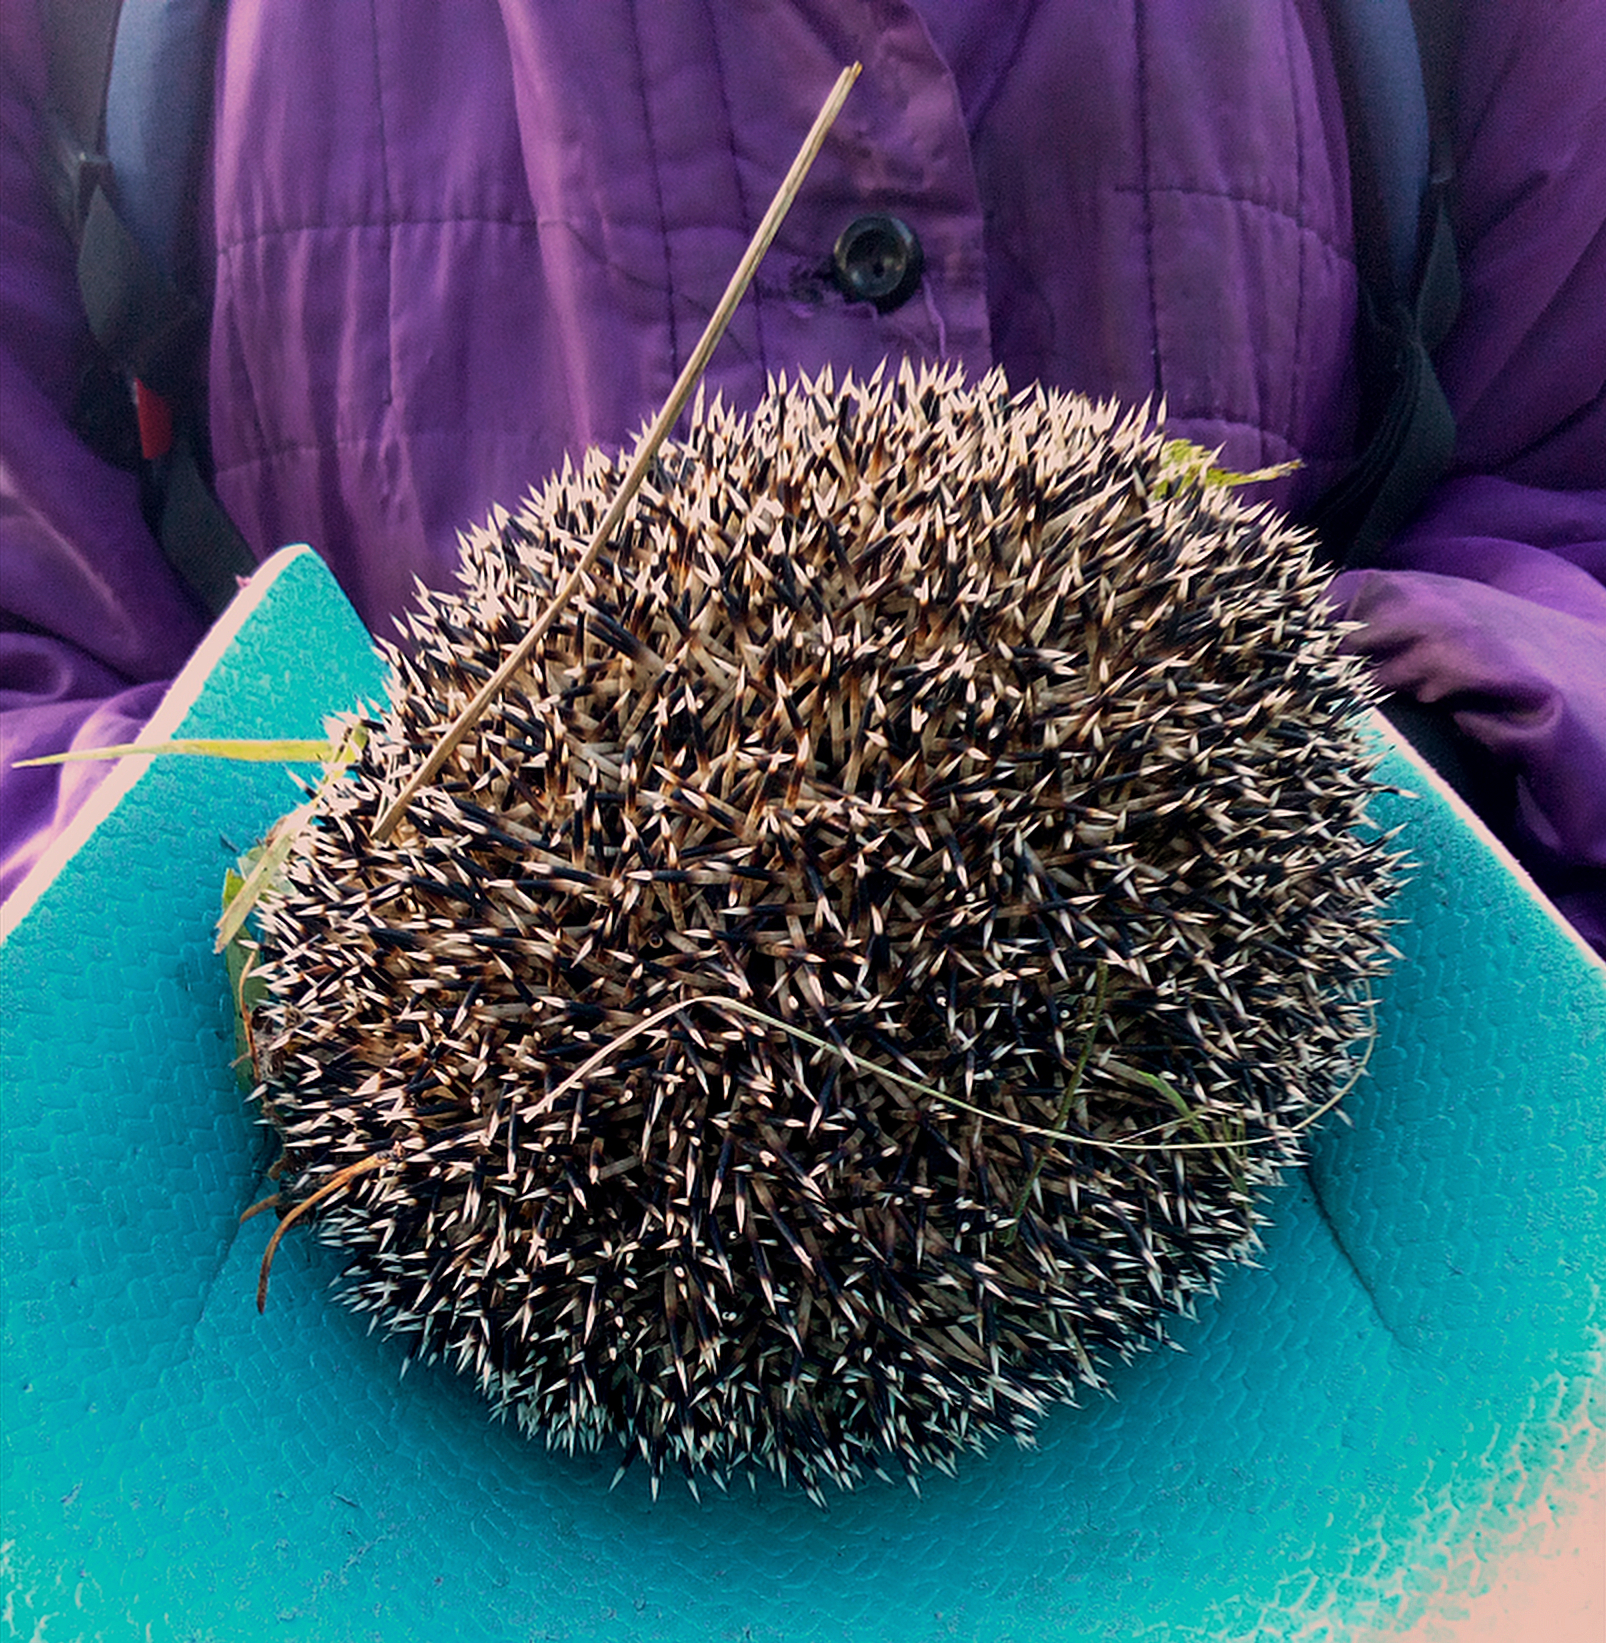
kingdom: Animalia
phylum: Chordata
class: Mammalia
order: Erinaceomorpha
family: Erinaceidae
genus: Erinaceus
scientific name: Erinaceus roumanicus
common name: Northern white-breasted hedgehog
